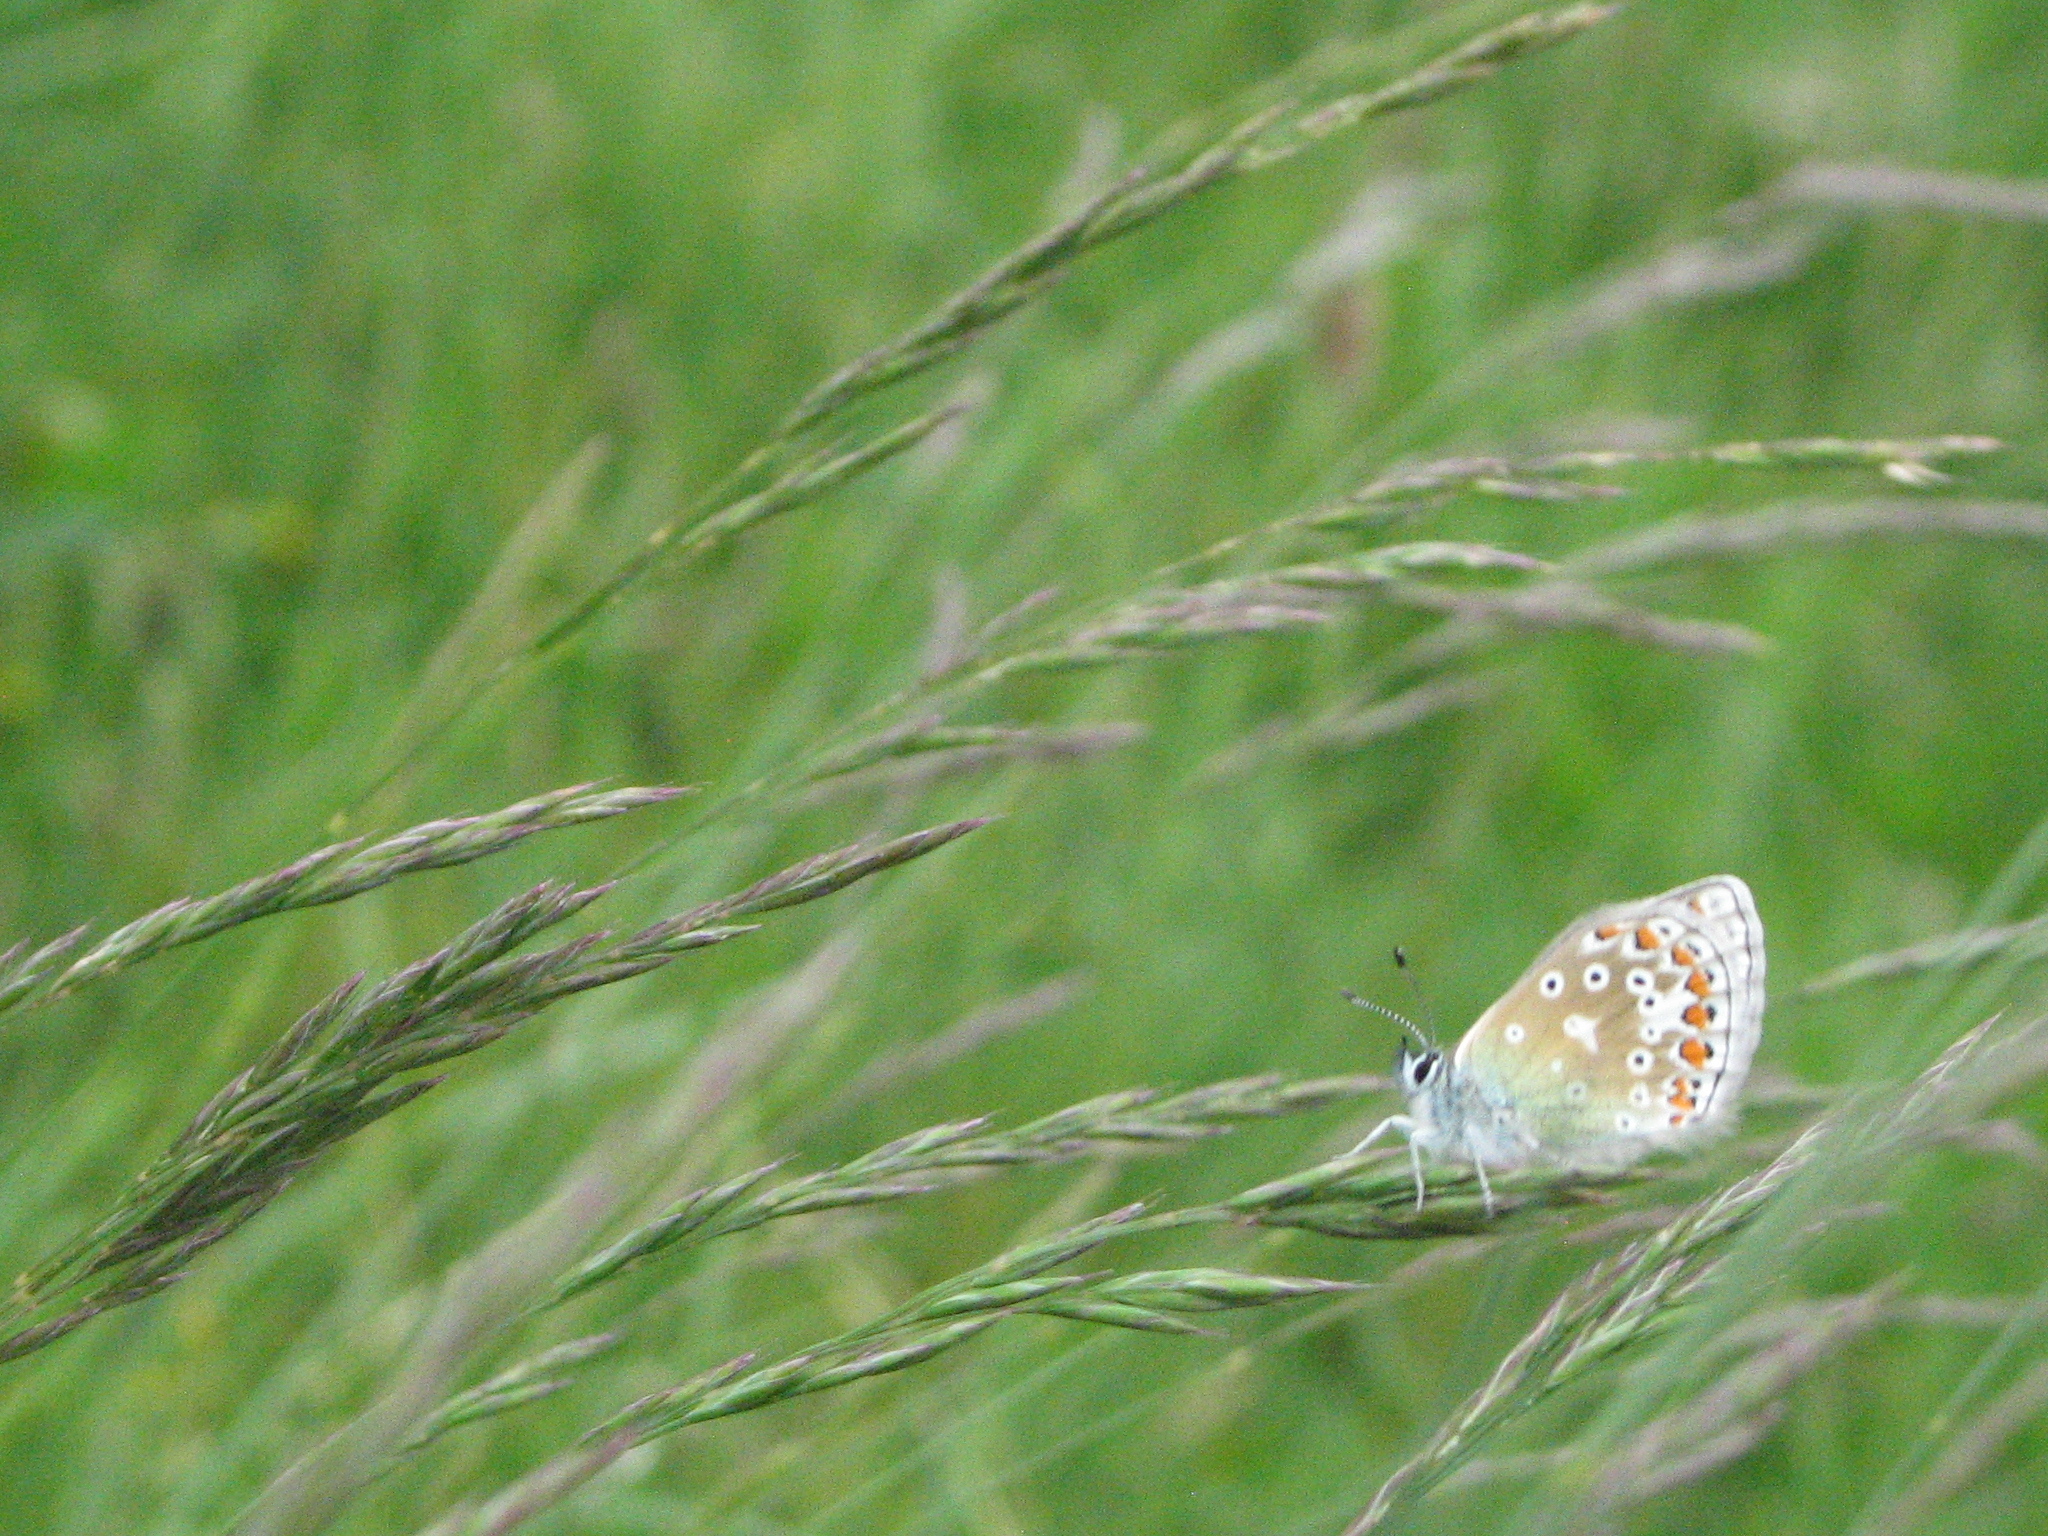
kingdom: Animalia
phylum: Arthropoda
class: Insecta
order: Lepidoptera
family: Lycaenidae
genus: Polyommatus
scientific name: Polyommatus icarus
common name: Common blue
